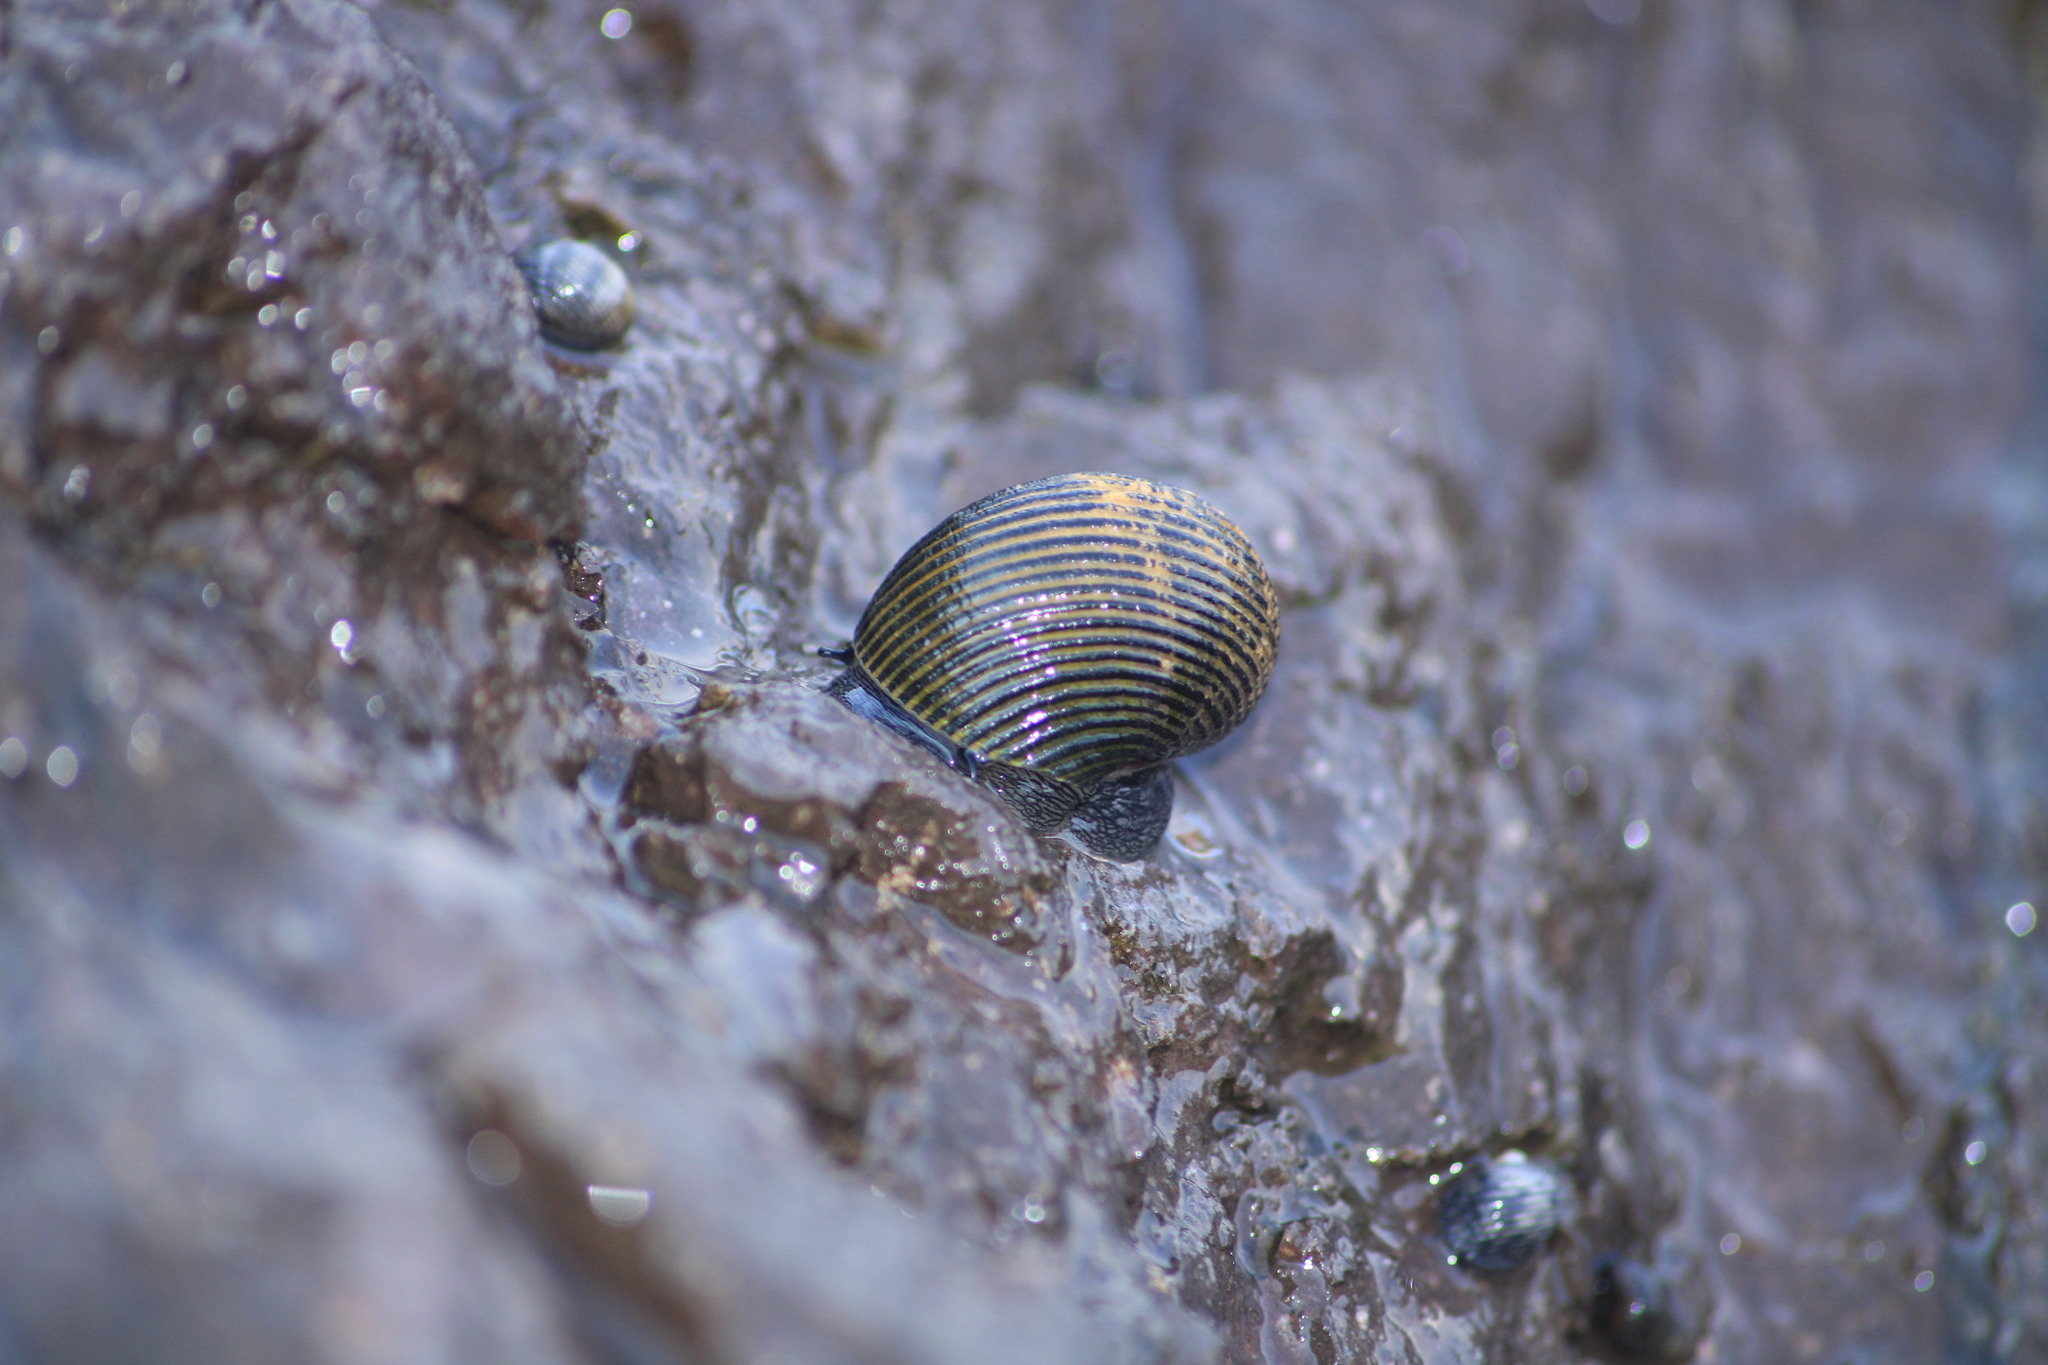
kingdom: Animalia
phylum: Mollusca
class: Gastropoda
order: Cycloneritida
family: Neritidae
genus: Nerita
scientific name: Nerita scabricosta
